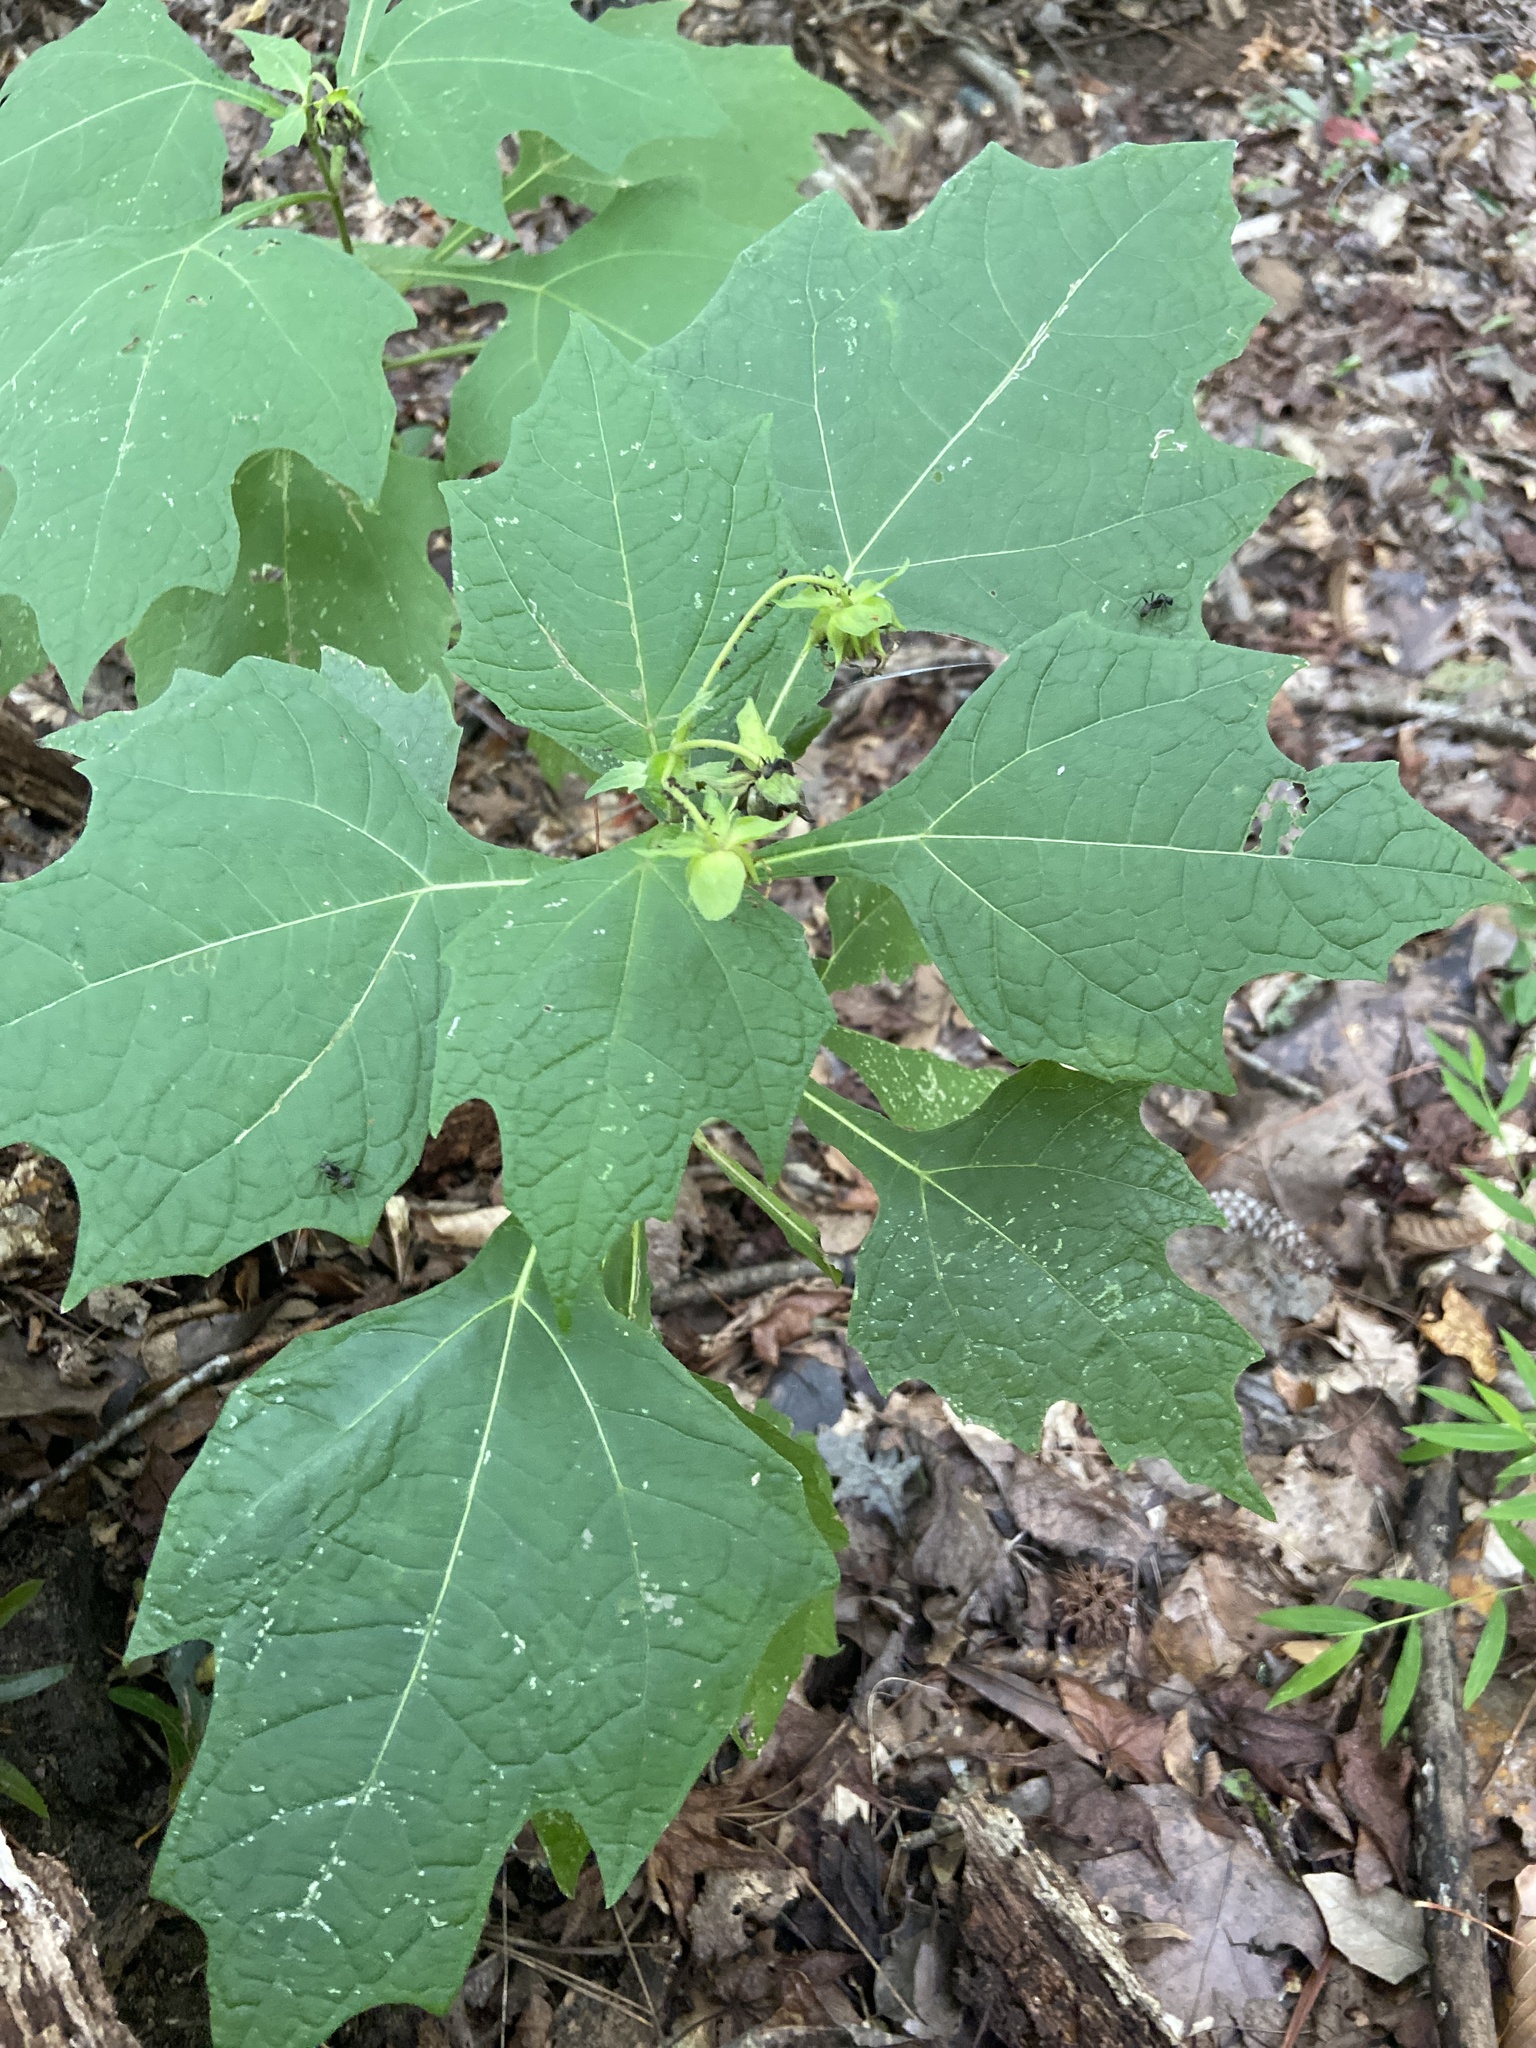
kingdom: Plantae
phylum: Tracheophyta
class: Magnoliopsida
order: Asterales
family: Asteraceae
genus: Smallanthus
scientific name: Smallanthus uvedalia
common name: Bear's-foot
